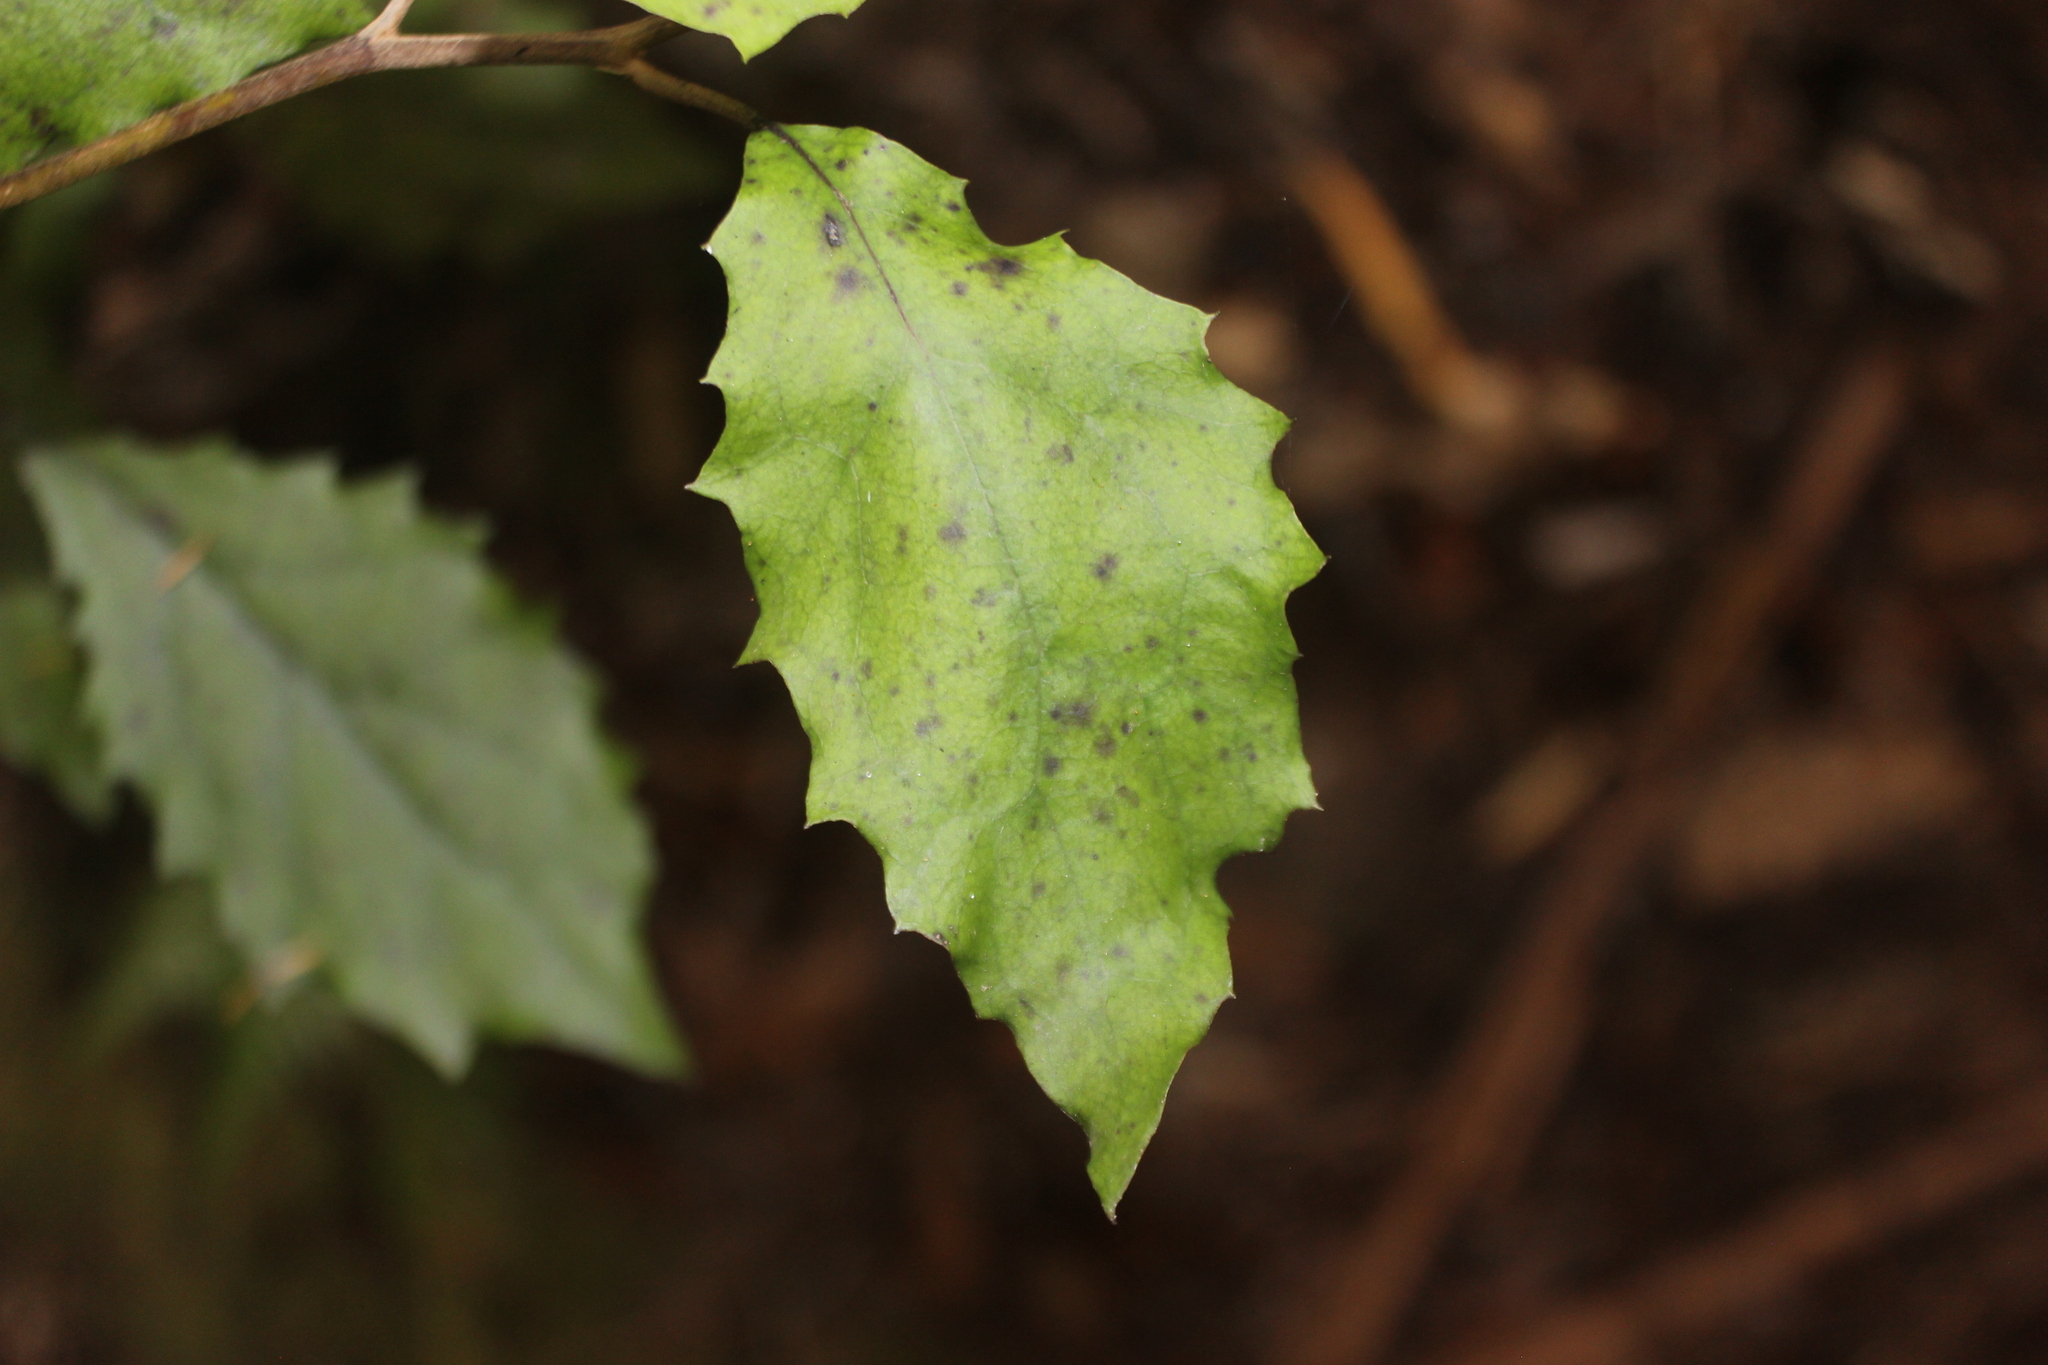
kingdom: Plantae
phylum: Tracheophyta
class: Magnoliopsida
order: Asterales
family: Asteraceae
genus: Olearia
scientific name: Olearia rani
